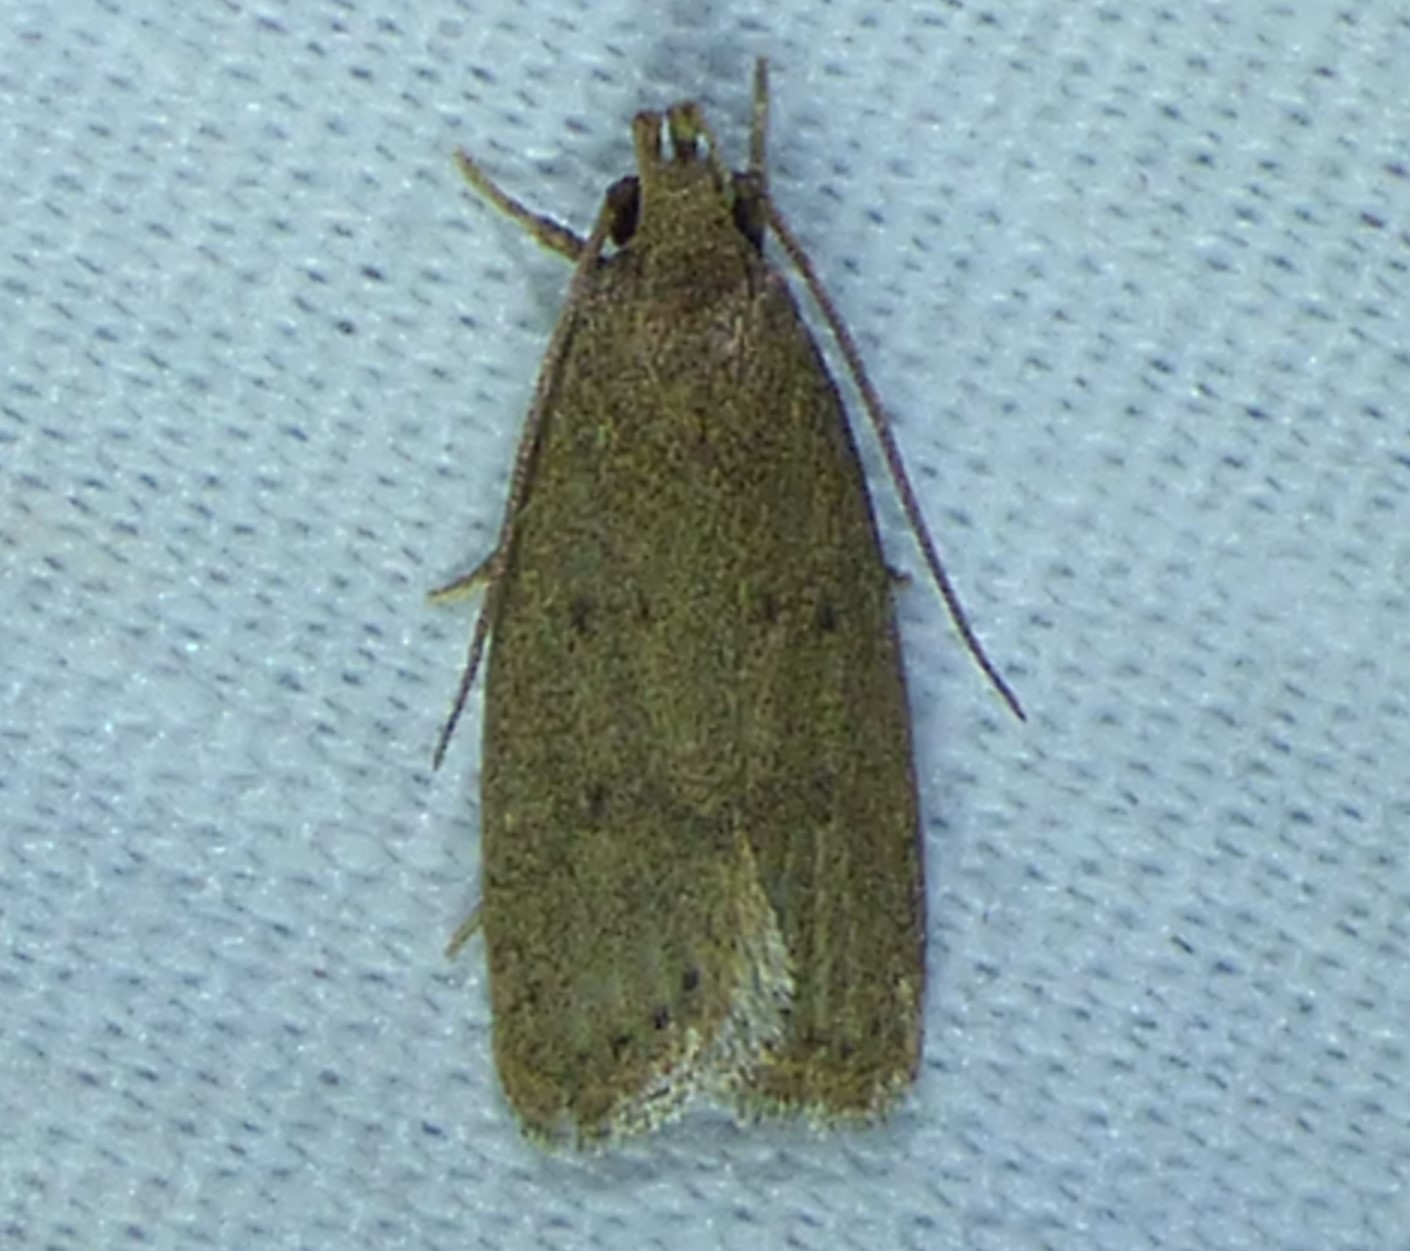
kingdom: Animalia
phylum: Arthropoda
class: Insecta
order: Lepidoptera
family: Autostichidae
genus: Autosticha
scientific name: Autosticha kyotensis
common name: Kyoto moth
